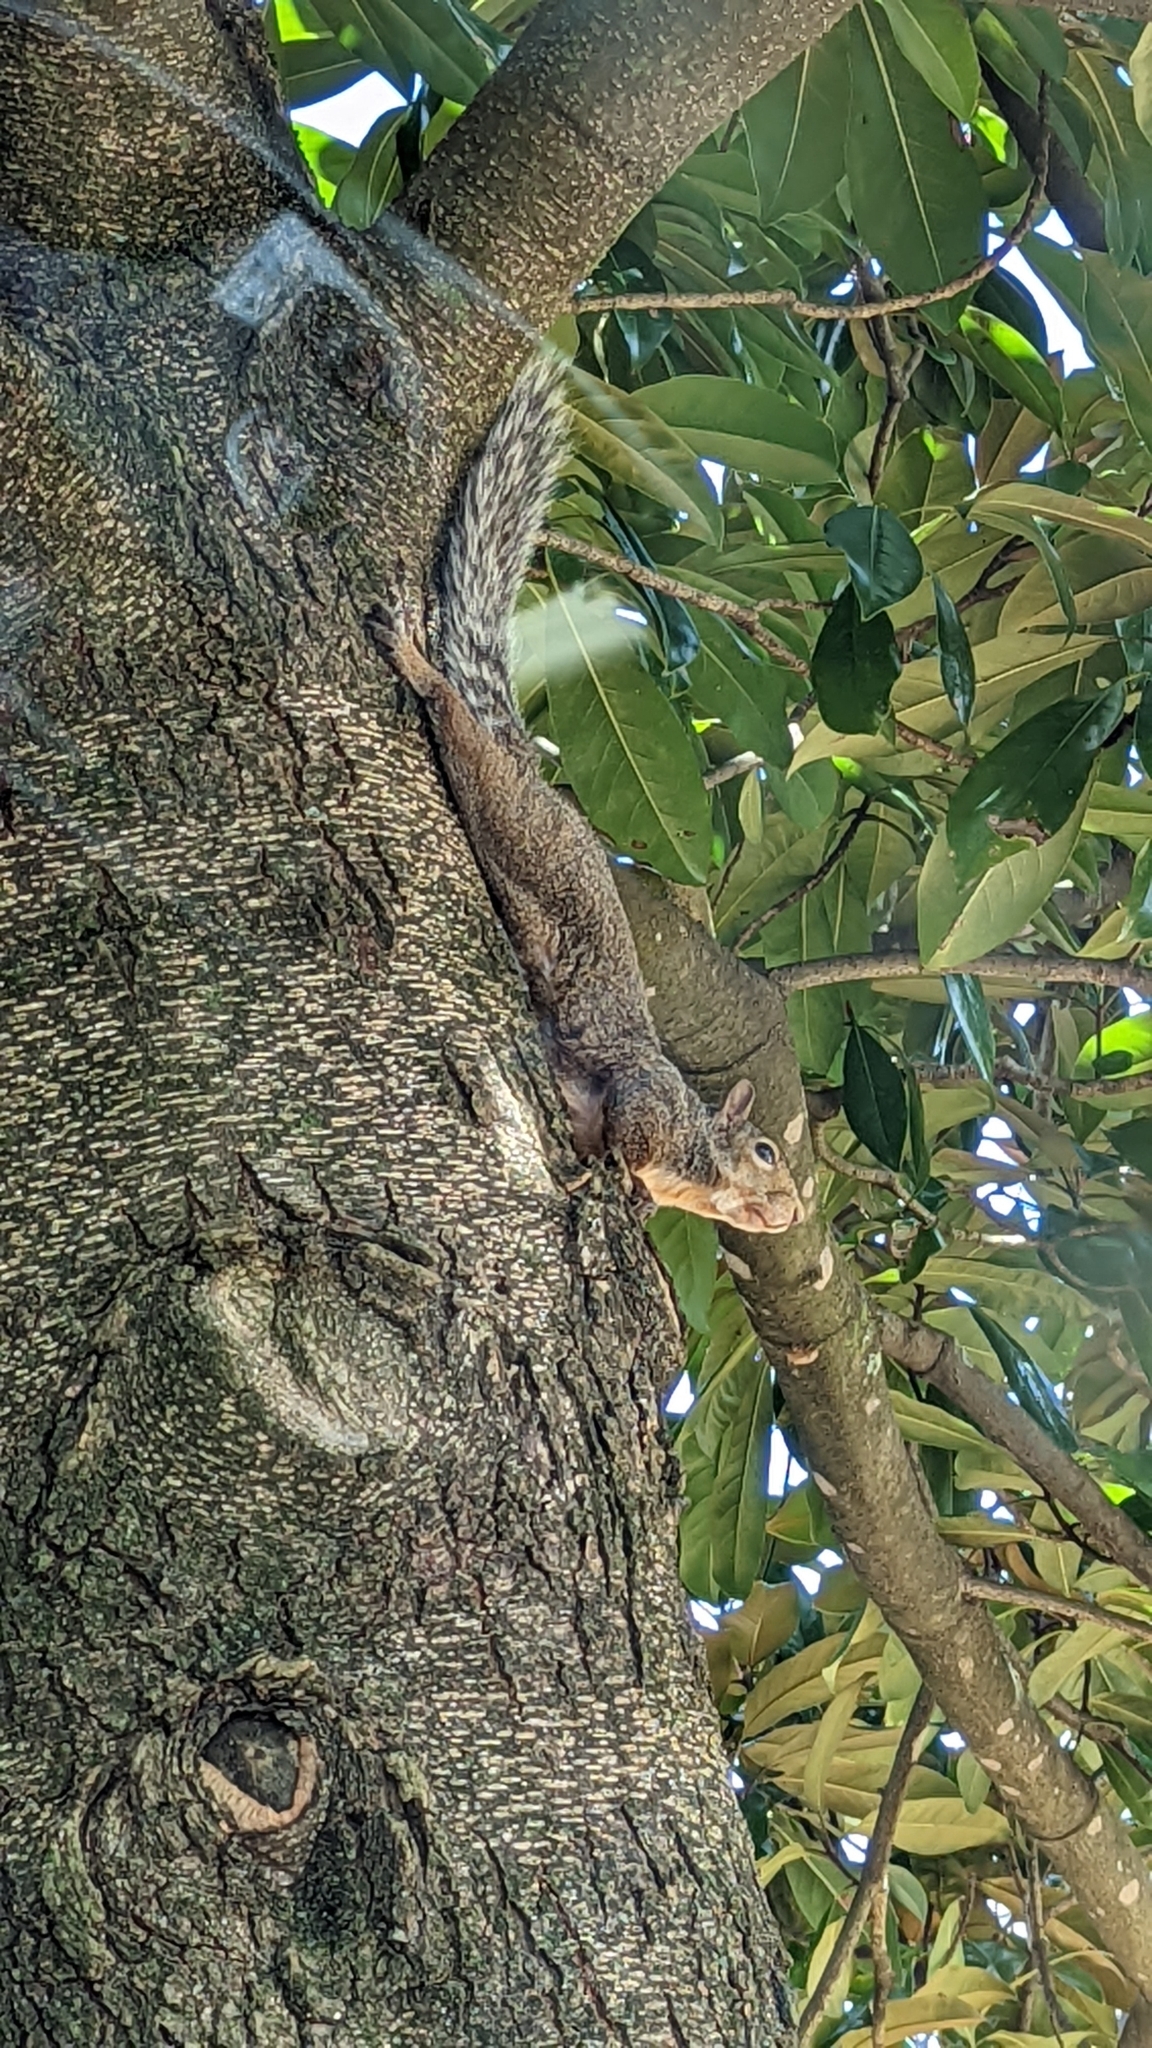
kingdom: Animalia
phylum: Chordata
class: Mammalia
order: Rodentia
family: Sciuridae
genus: Sciurus
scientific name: Sciurus carolinensis
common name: Eastern gray squirrel
